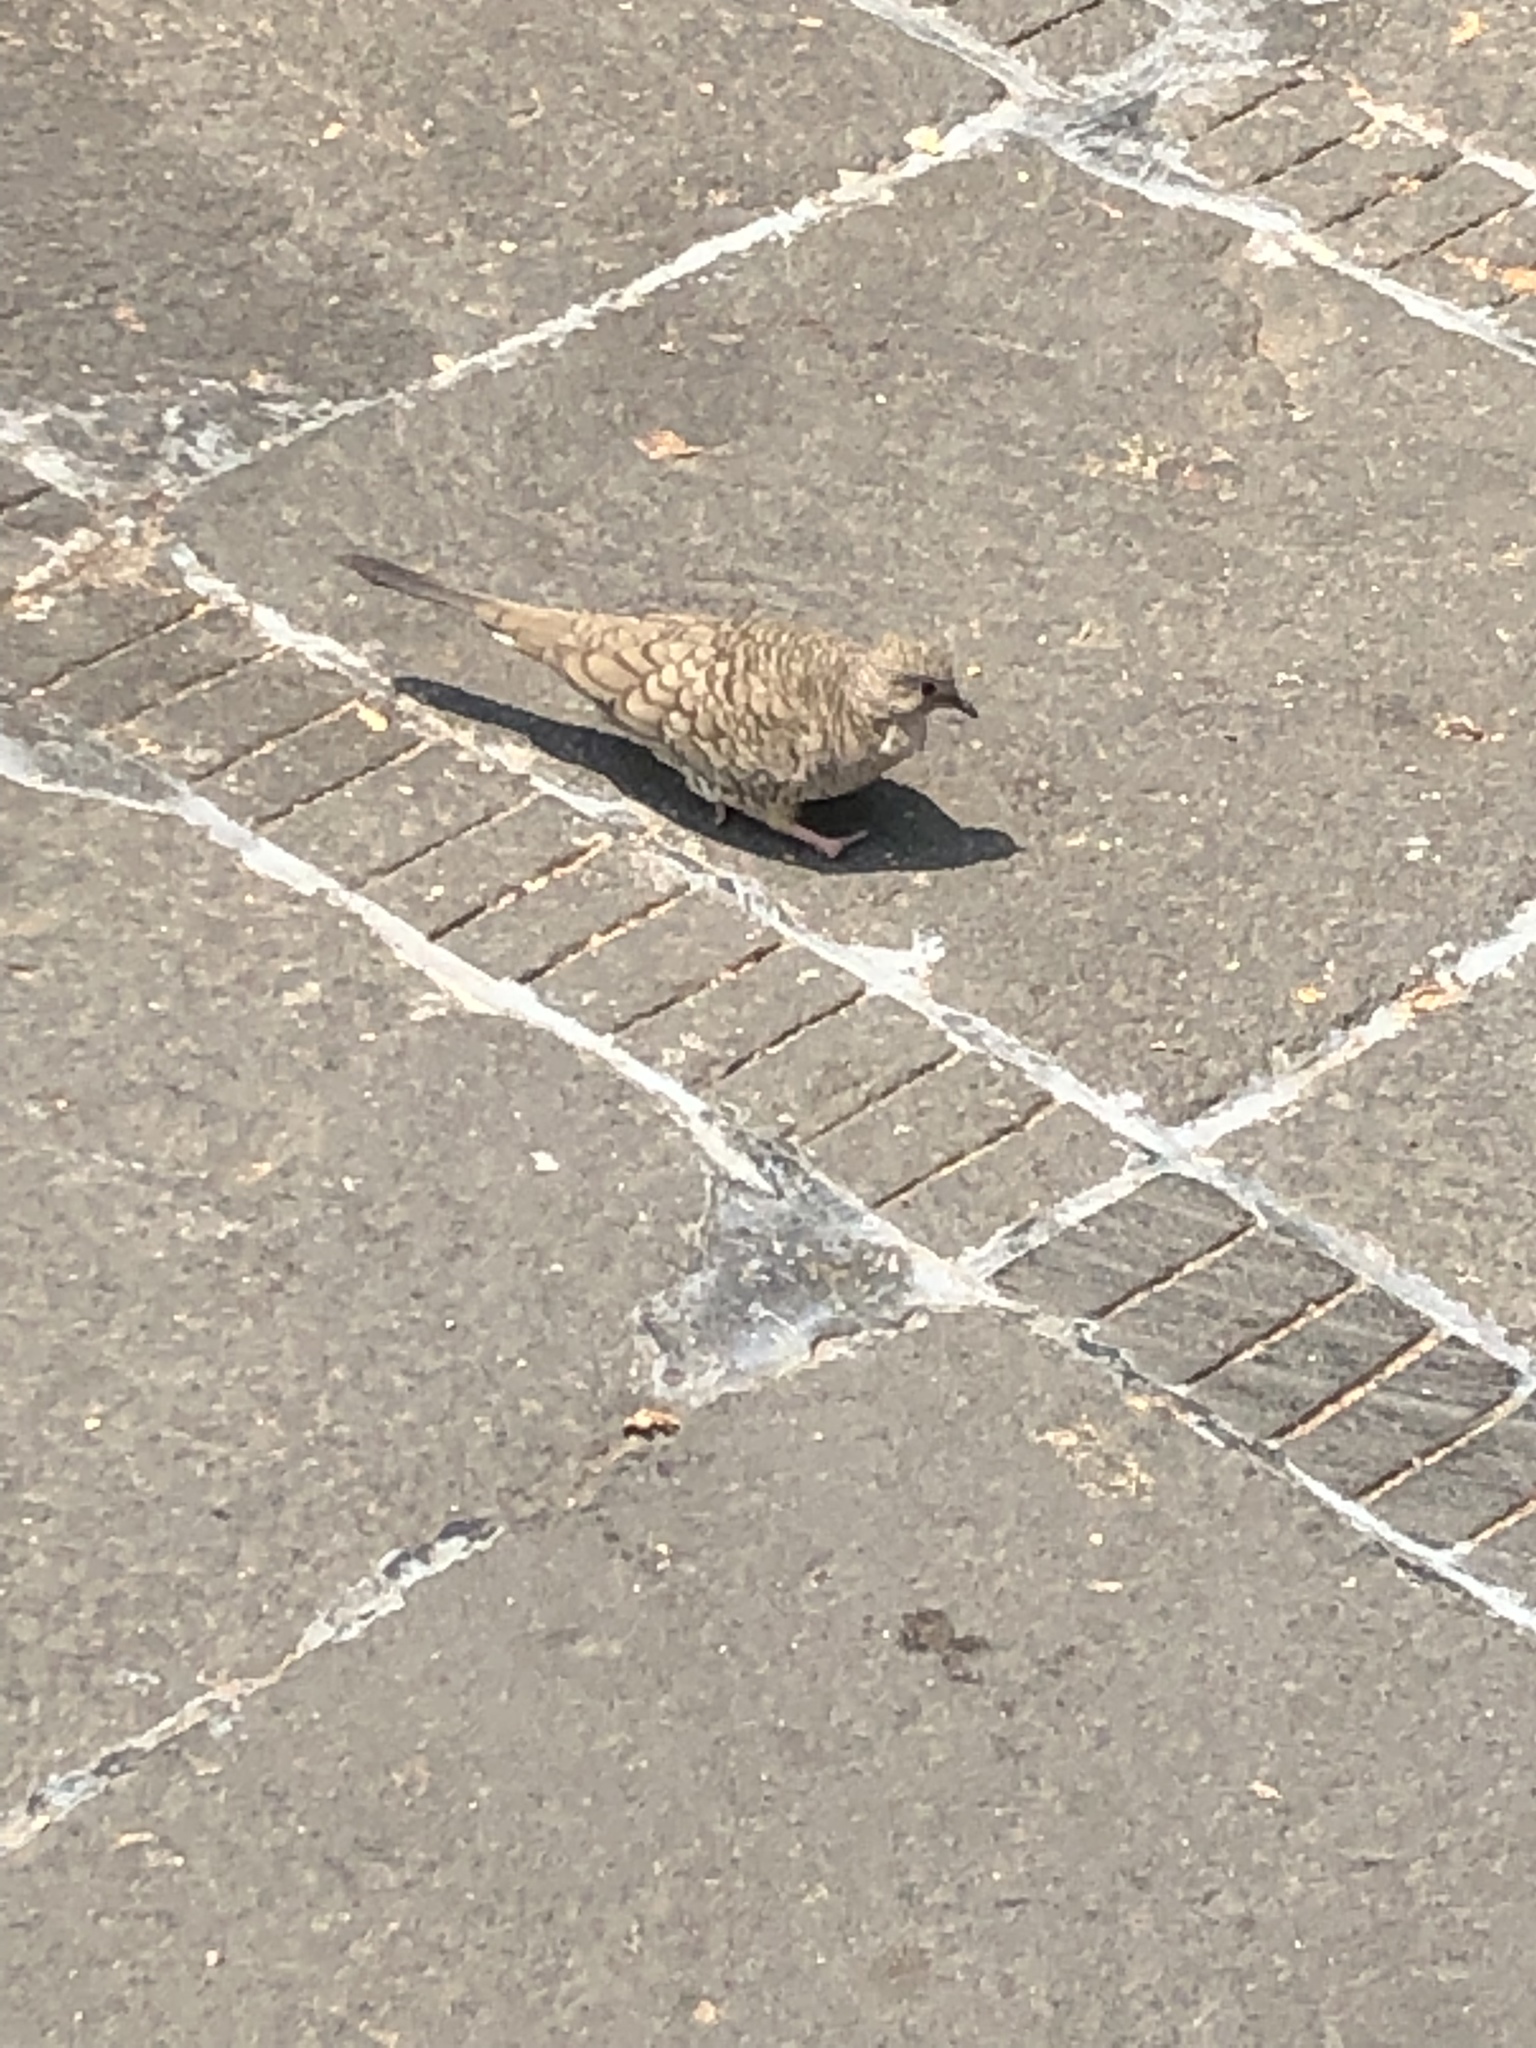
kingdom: Animalia
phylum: Chordata
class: Aves
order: Columbiformes
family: Columbidae
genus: Columbina
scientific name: Columbina inca
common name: Inca dove
